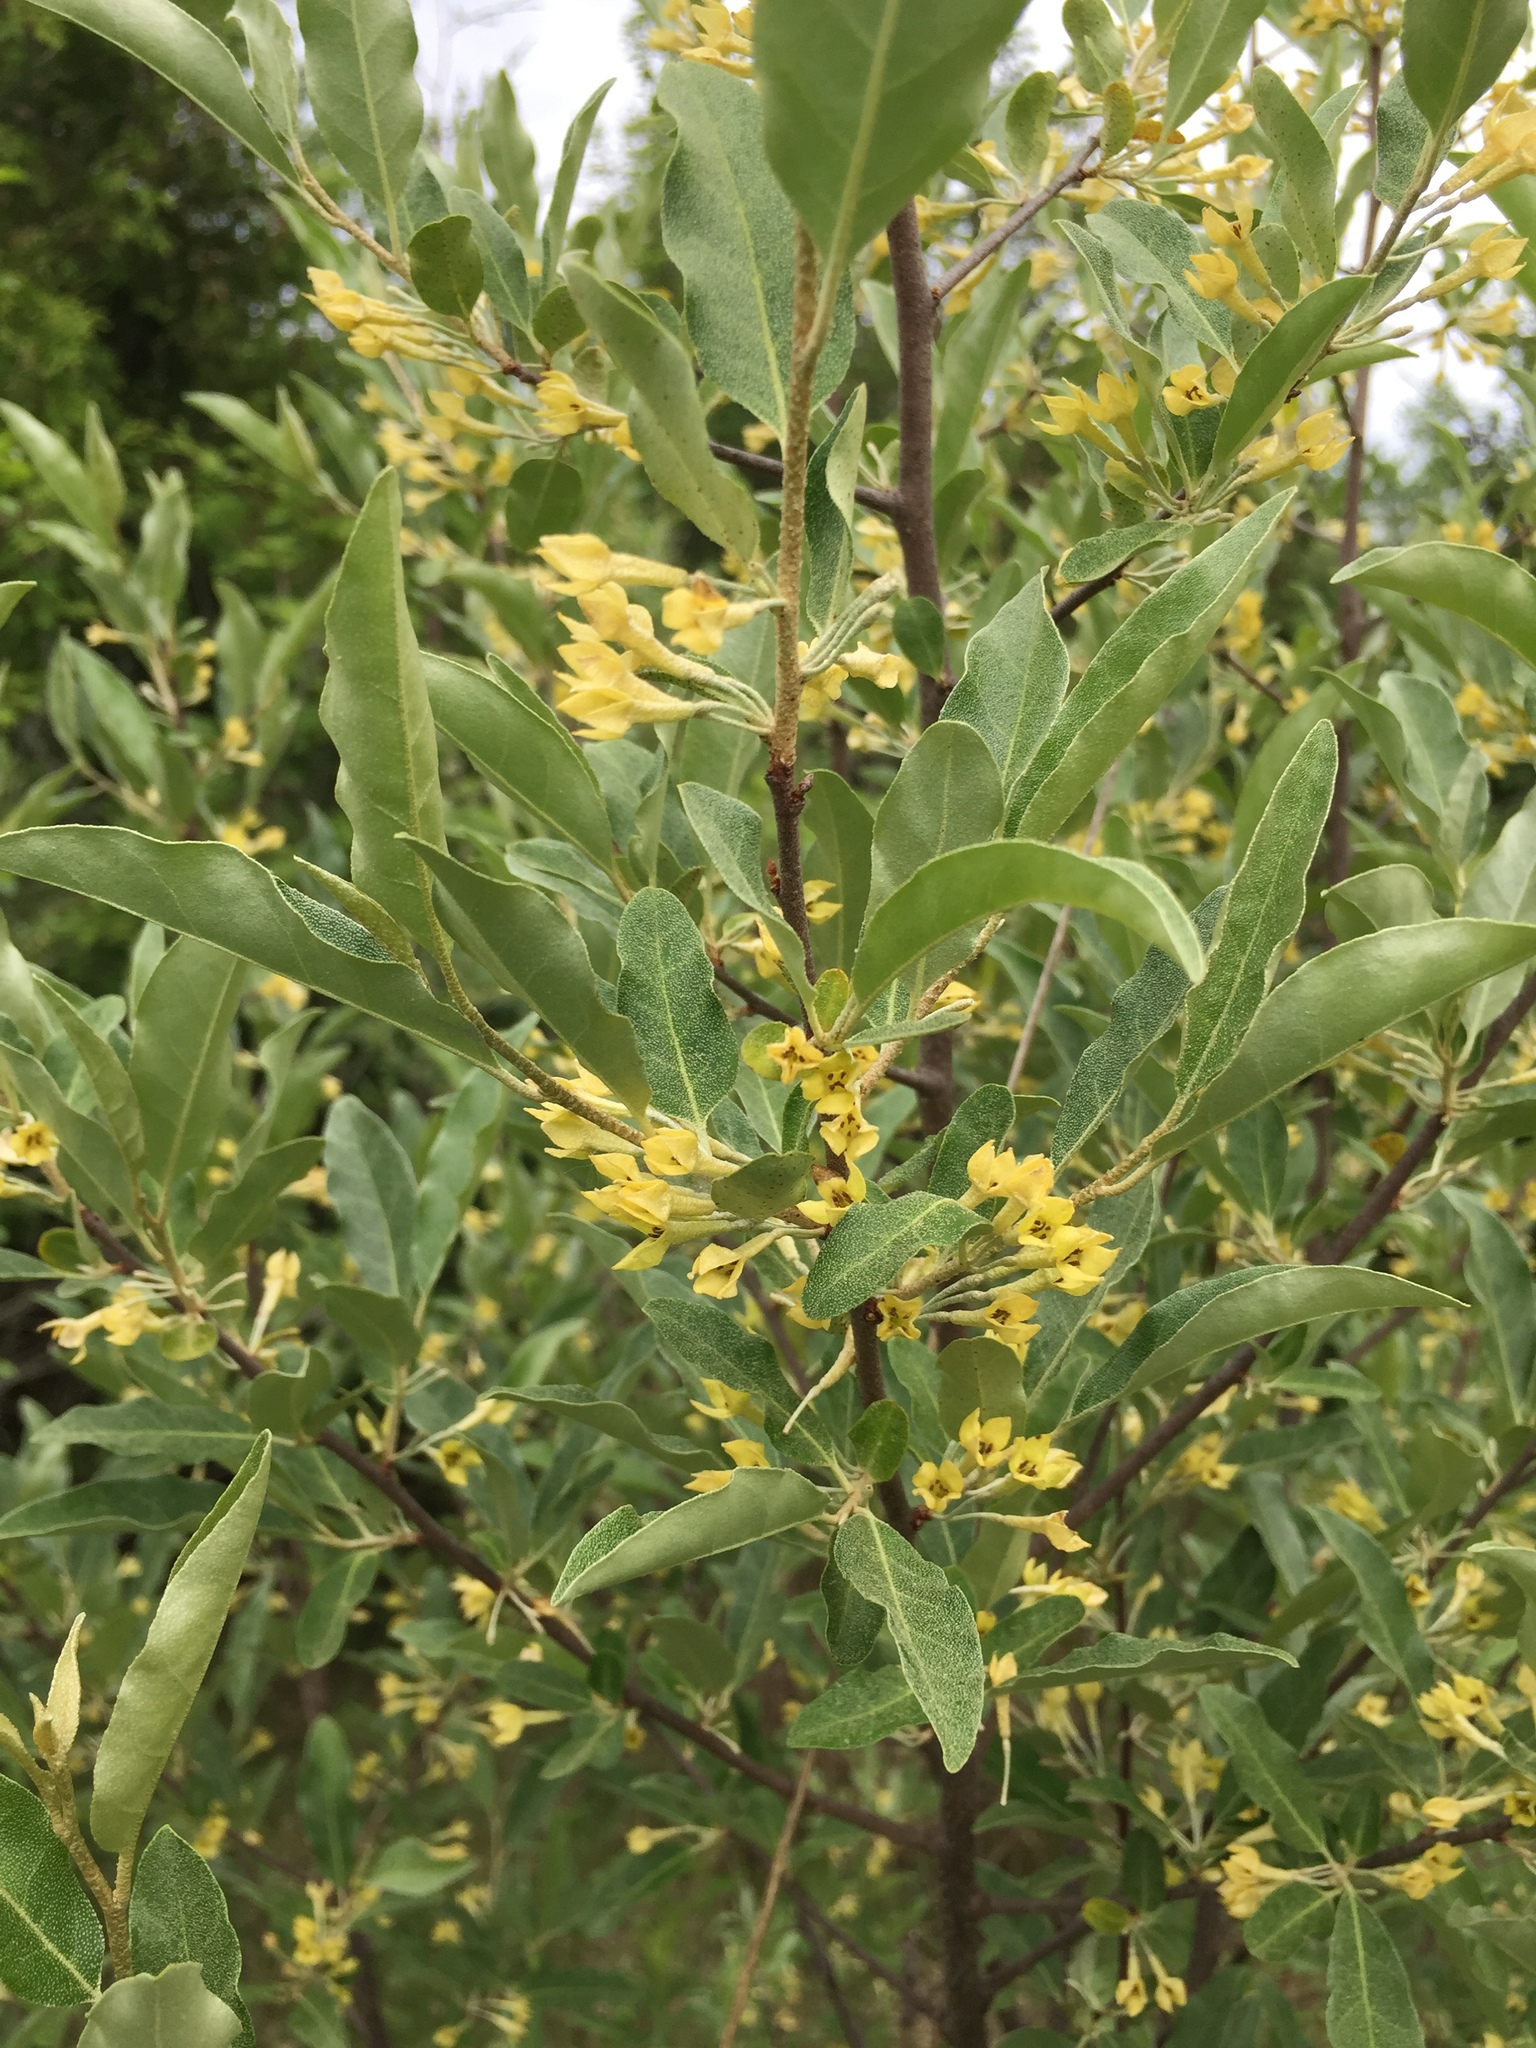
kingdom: Plantae
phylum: Tracheophyta
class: Magnoliopsida
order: Rosales
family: Elaeagnaceae
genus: Elaeagnus
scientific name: Elaeagnus umbellata
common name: Autumn olive
